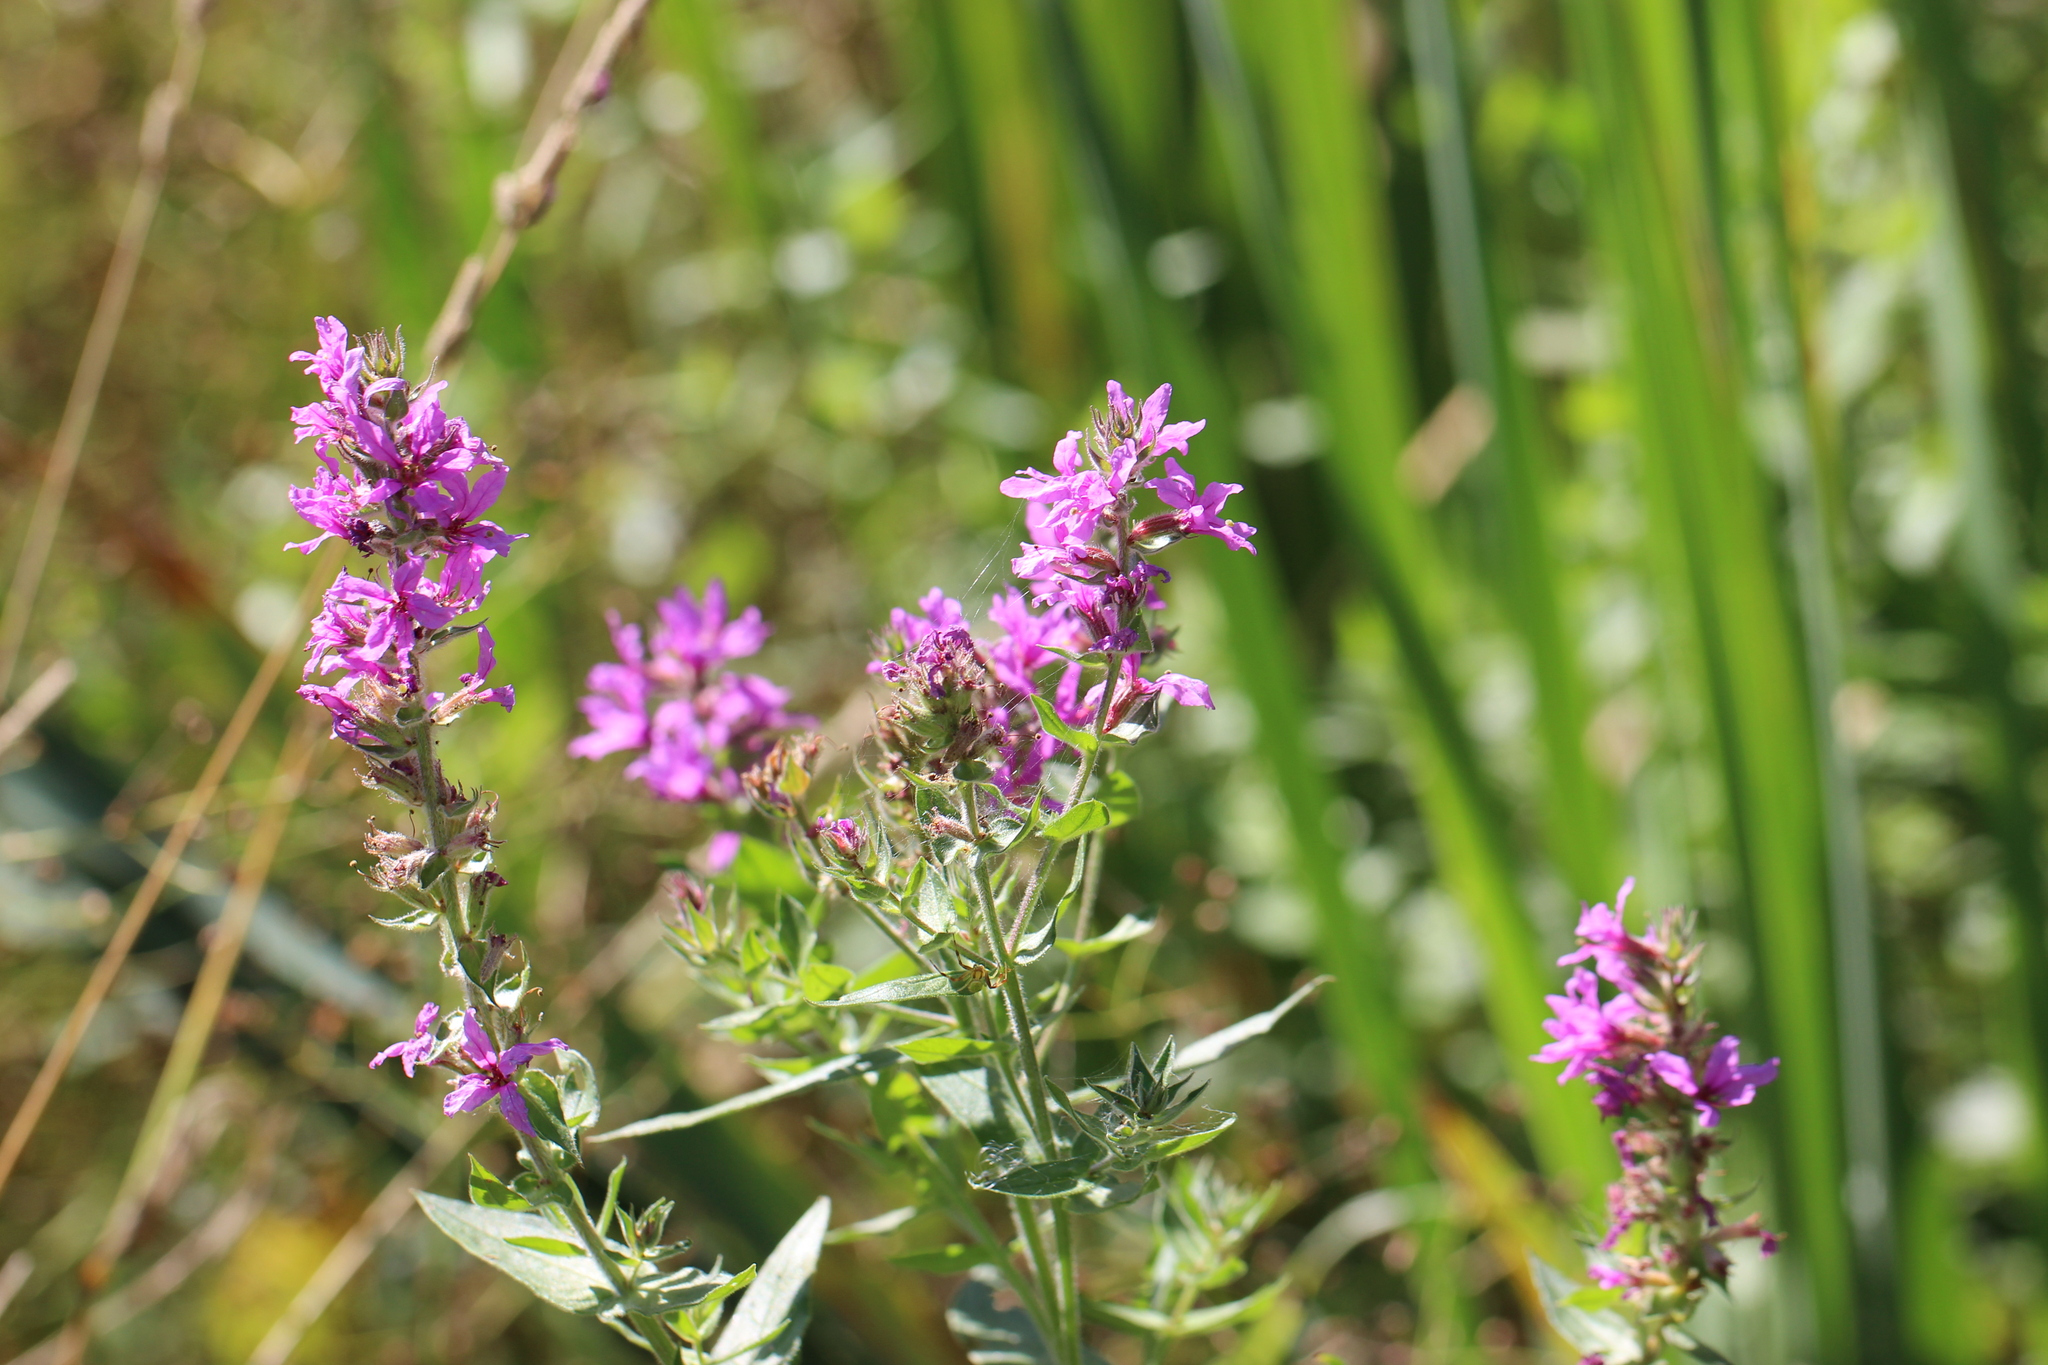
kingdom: Plantae
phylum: Tracheophyta
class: Magnoliopsida
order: Myrtales
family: Lythraceae
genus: Lythrum
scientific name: Lythrum salicaria
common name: Purple loosestrife
